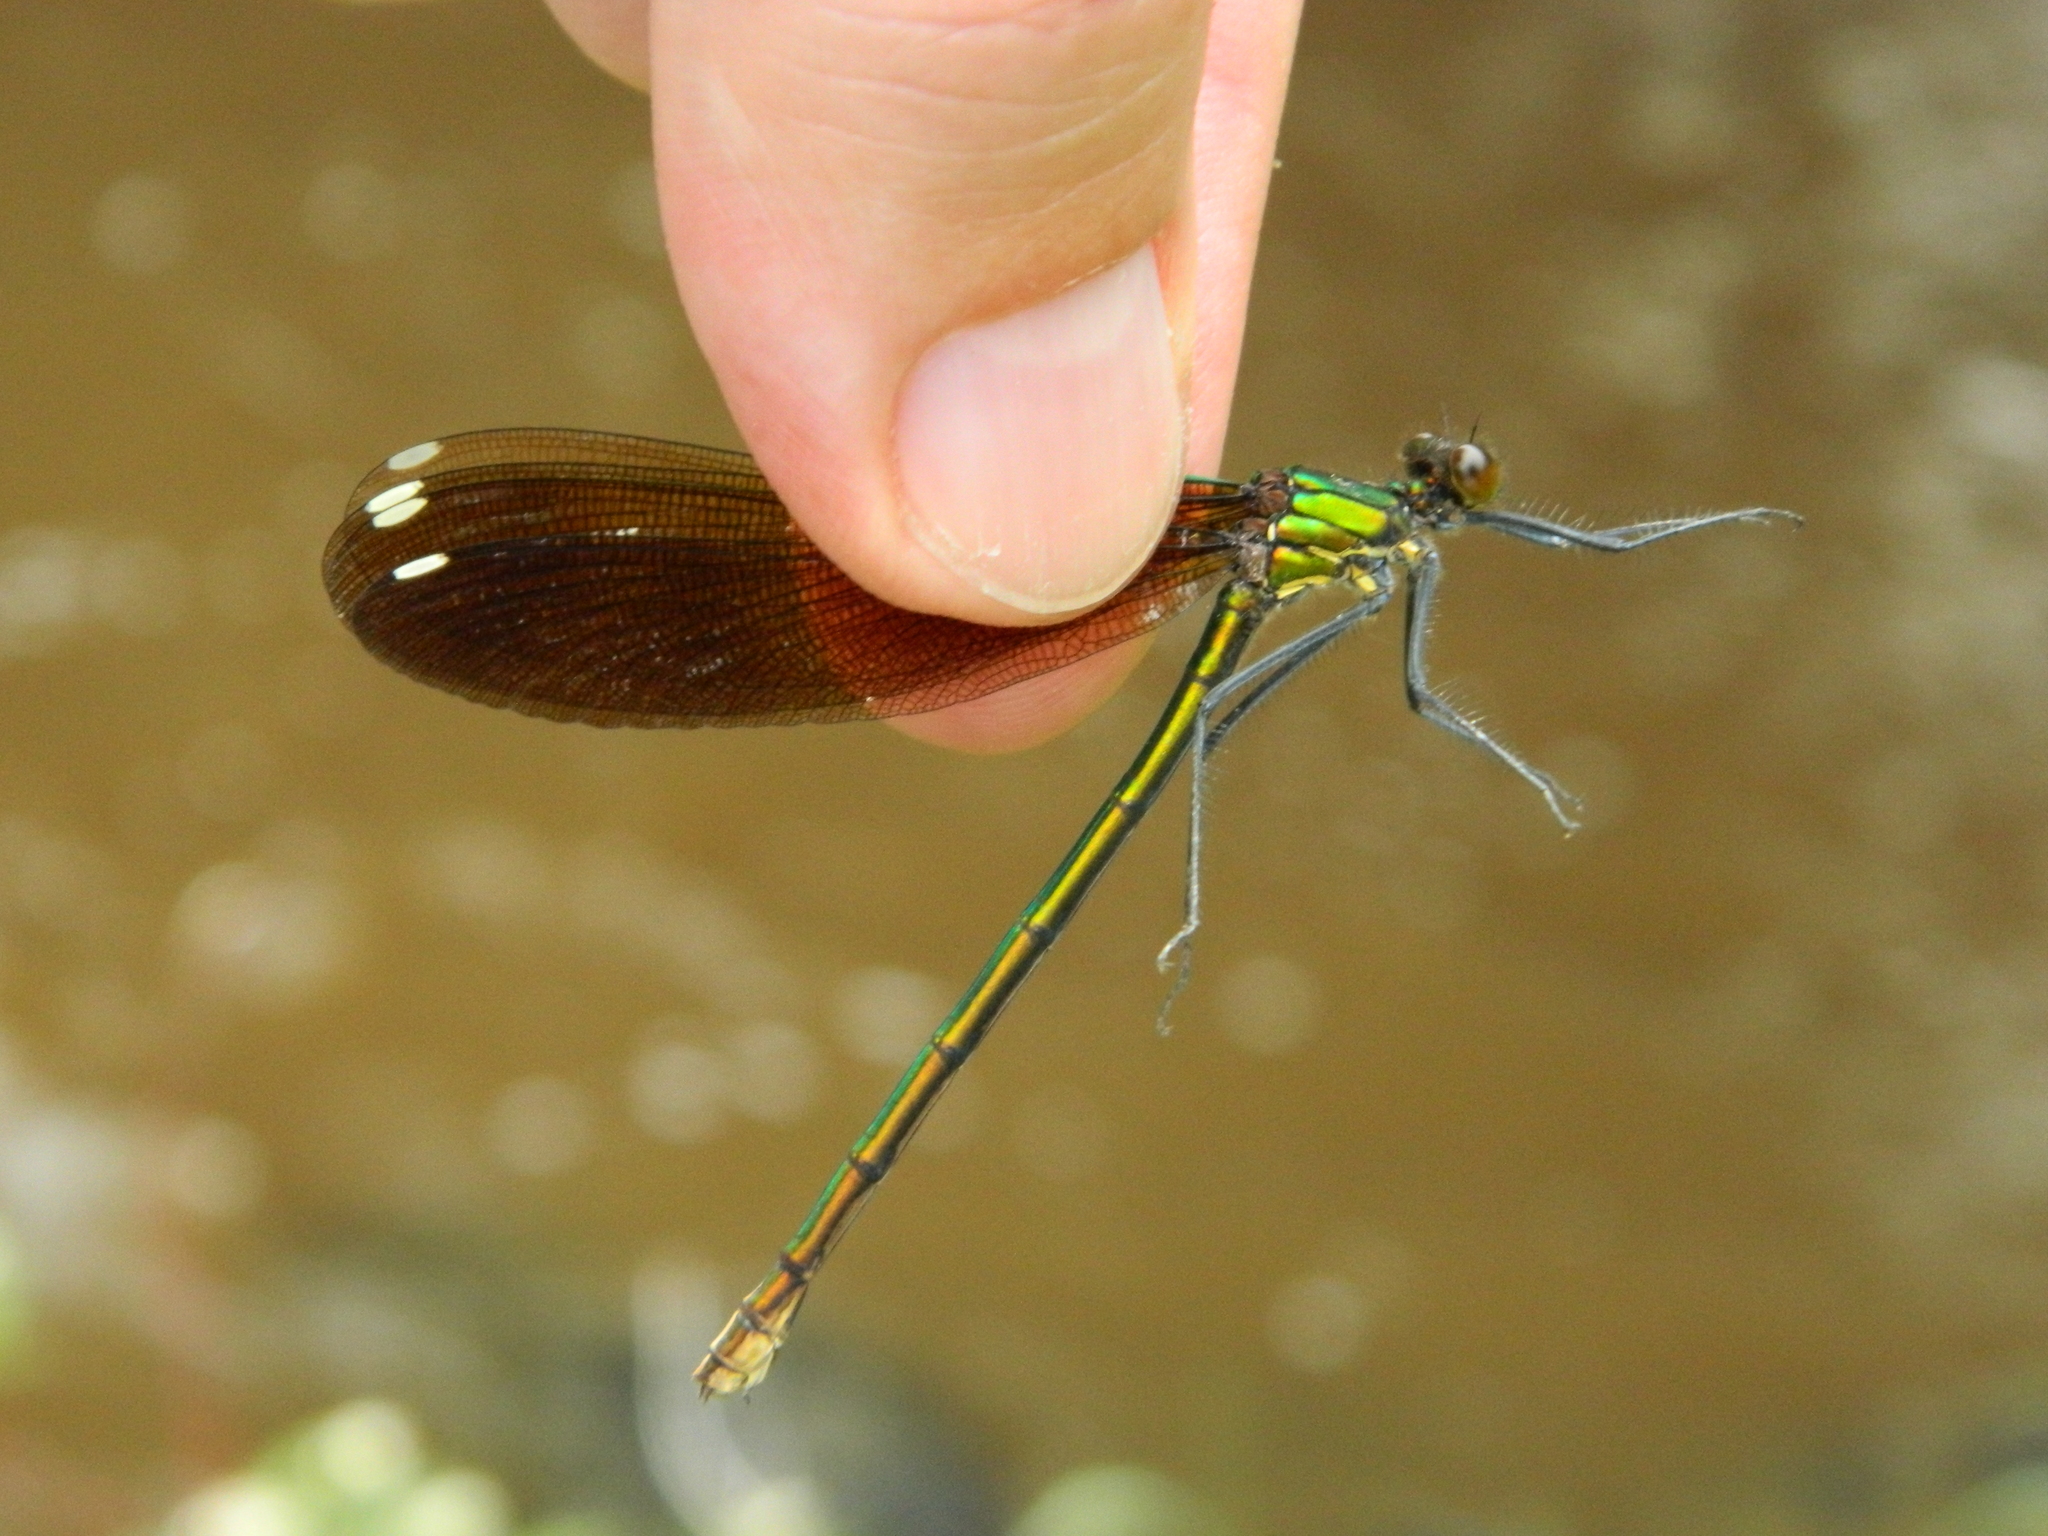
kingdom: Animalia
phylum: Arthropoda
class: Insecta
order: Odonata
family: Calopterygidae
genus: Calopteryx
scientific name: Calopteryx aequabilis
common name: River jewelwing
